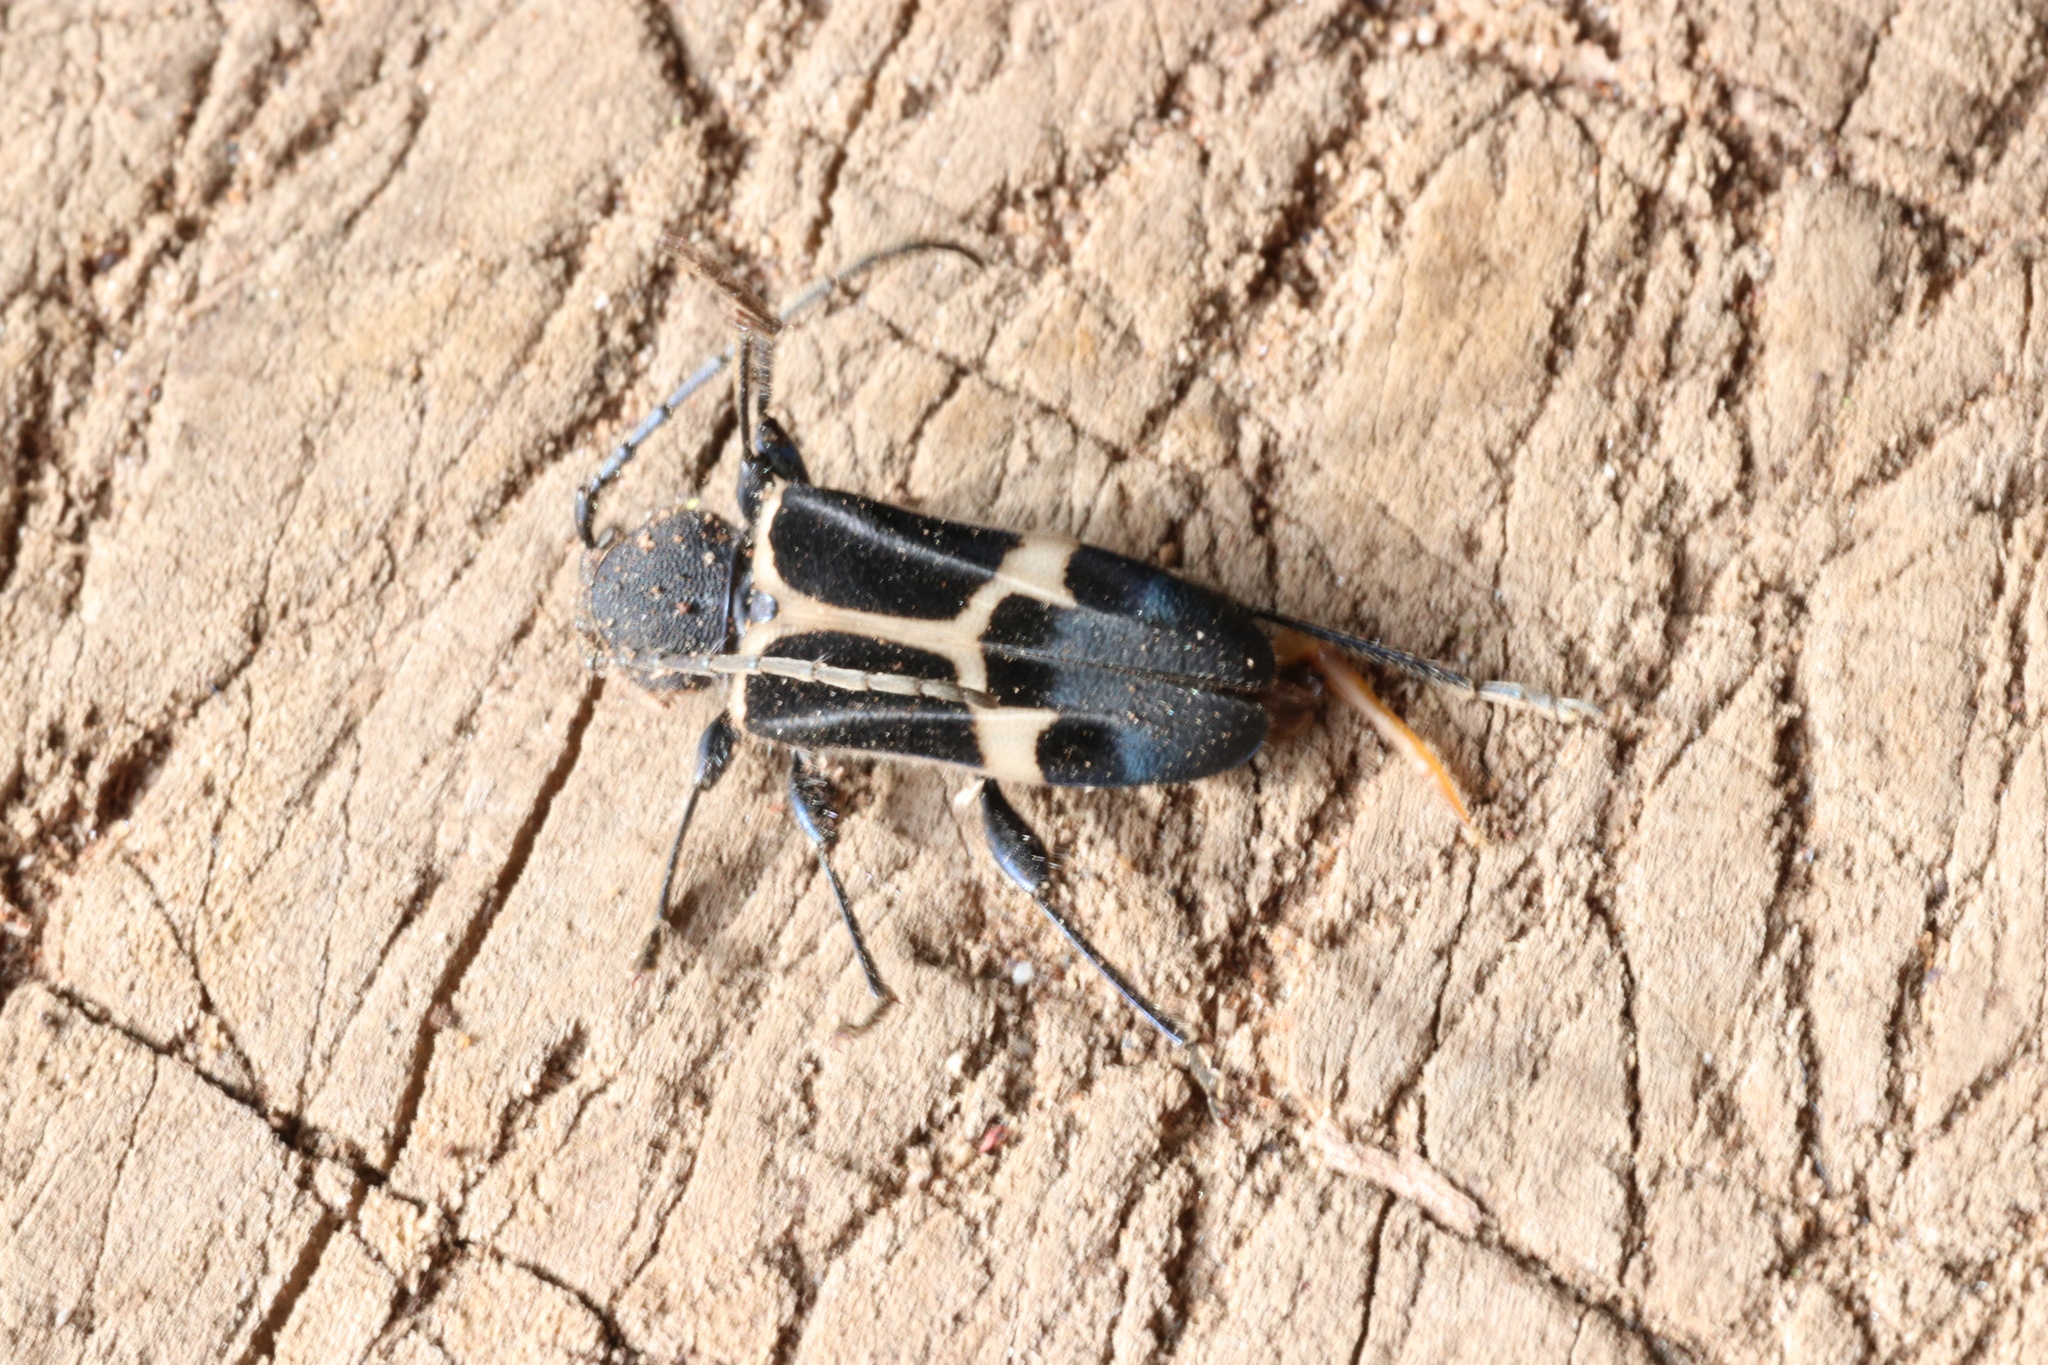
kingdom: Animalia
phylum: Arthropoda
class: Insecta
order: Coleoptera
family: Cerambycidae
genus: Calydon
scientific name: Calydon submetallicum
